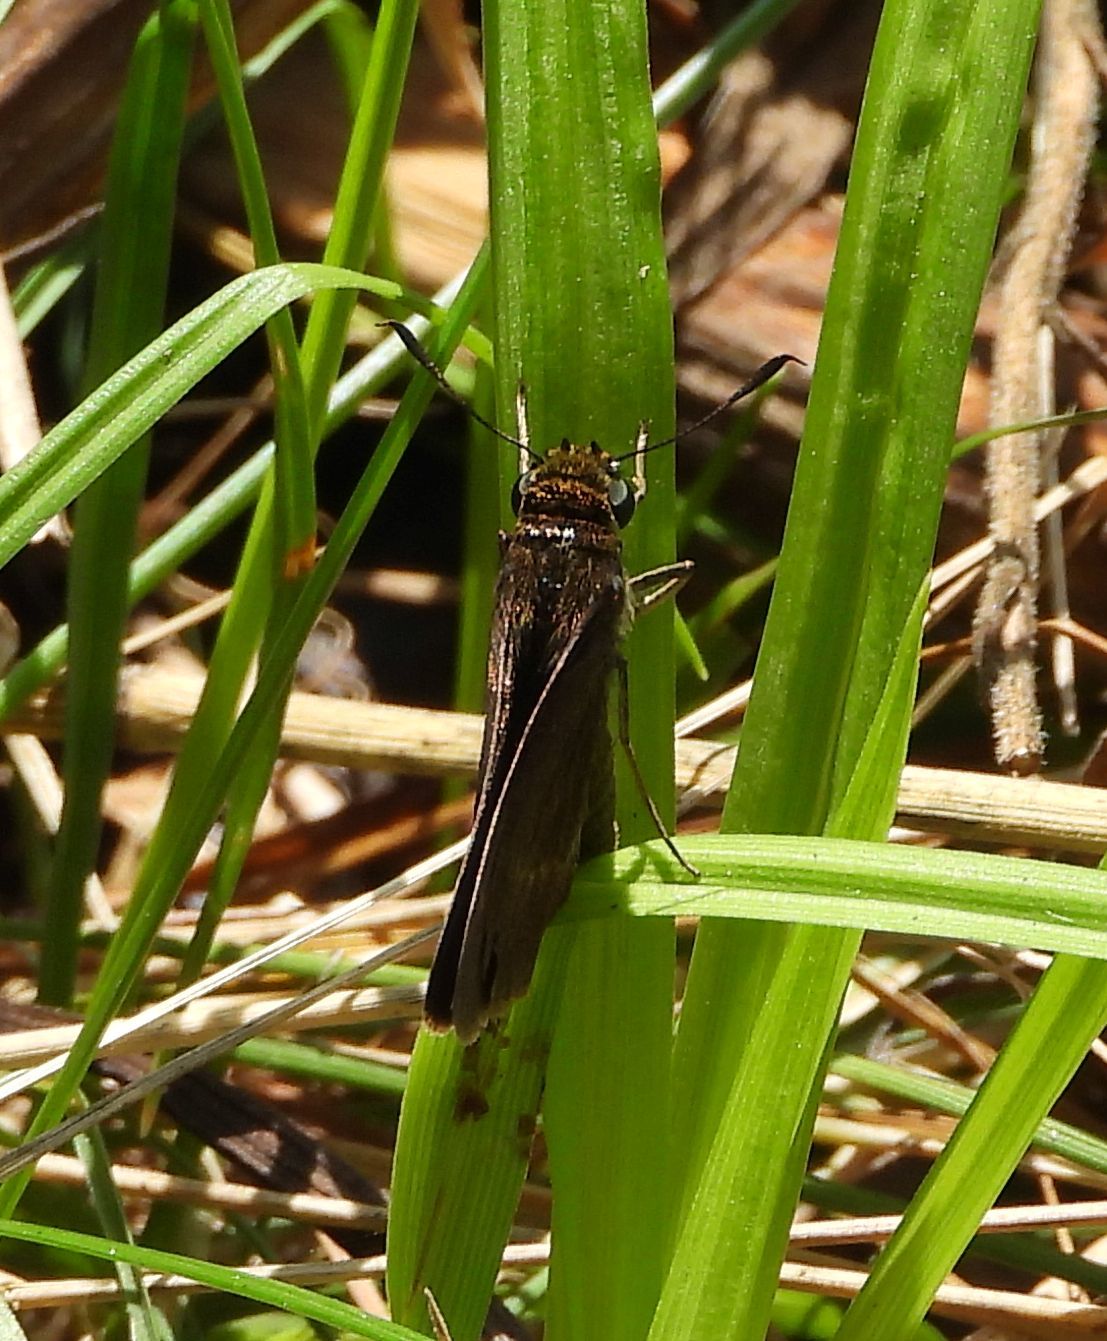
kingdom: Animalia
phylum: Arthropoda
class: Insecta
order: Lepidoptera
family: Hesperiidae
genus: Euphyes
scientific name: Euphyes vestris
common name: Dun skipper
